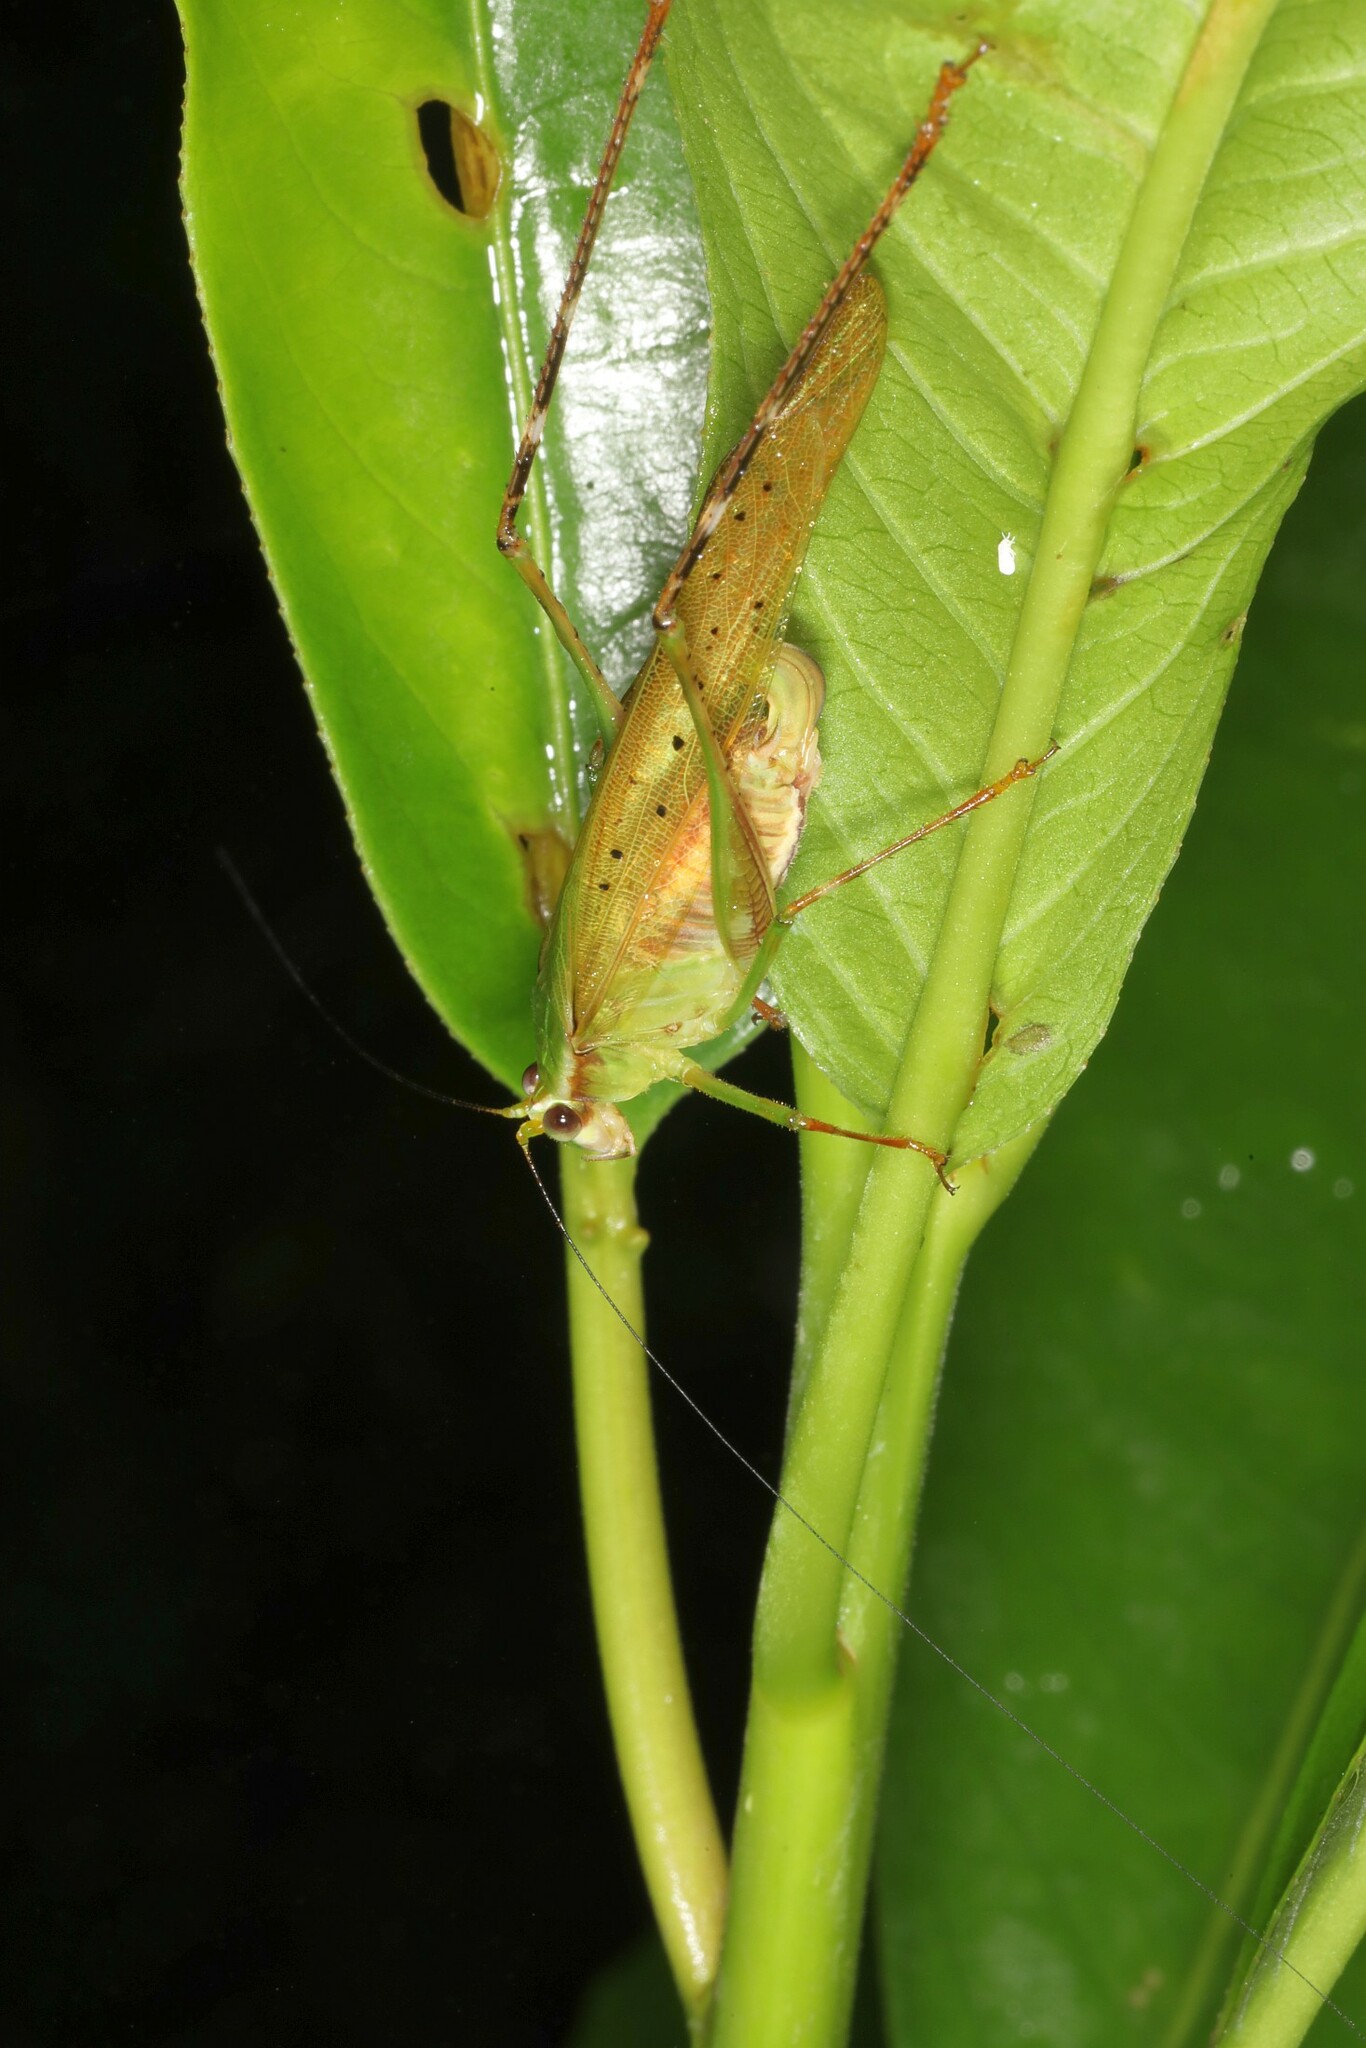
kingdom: Animalia
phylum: Arthropoda
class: Insecta
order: Orthoptera
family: Tettigoniidae
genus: Zenirella
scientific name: Zenirella punctata
